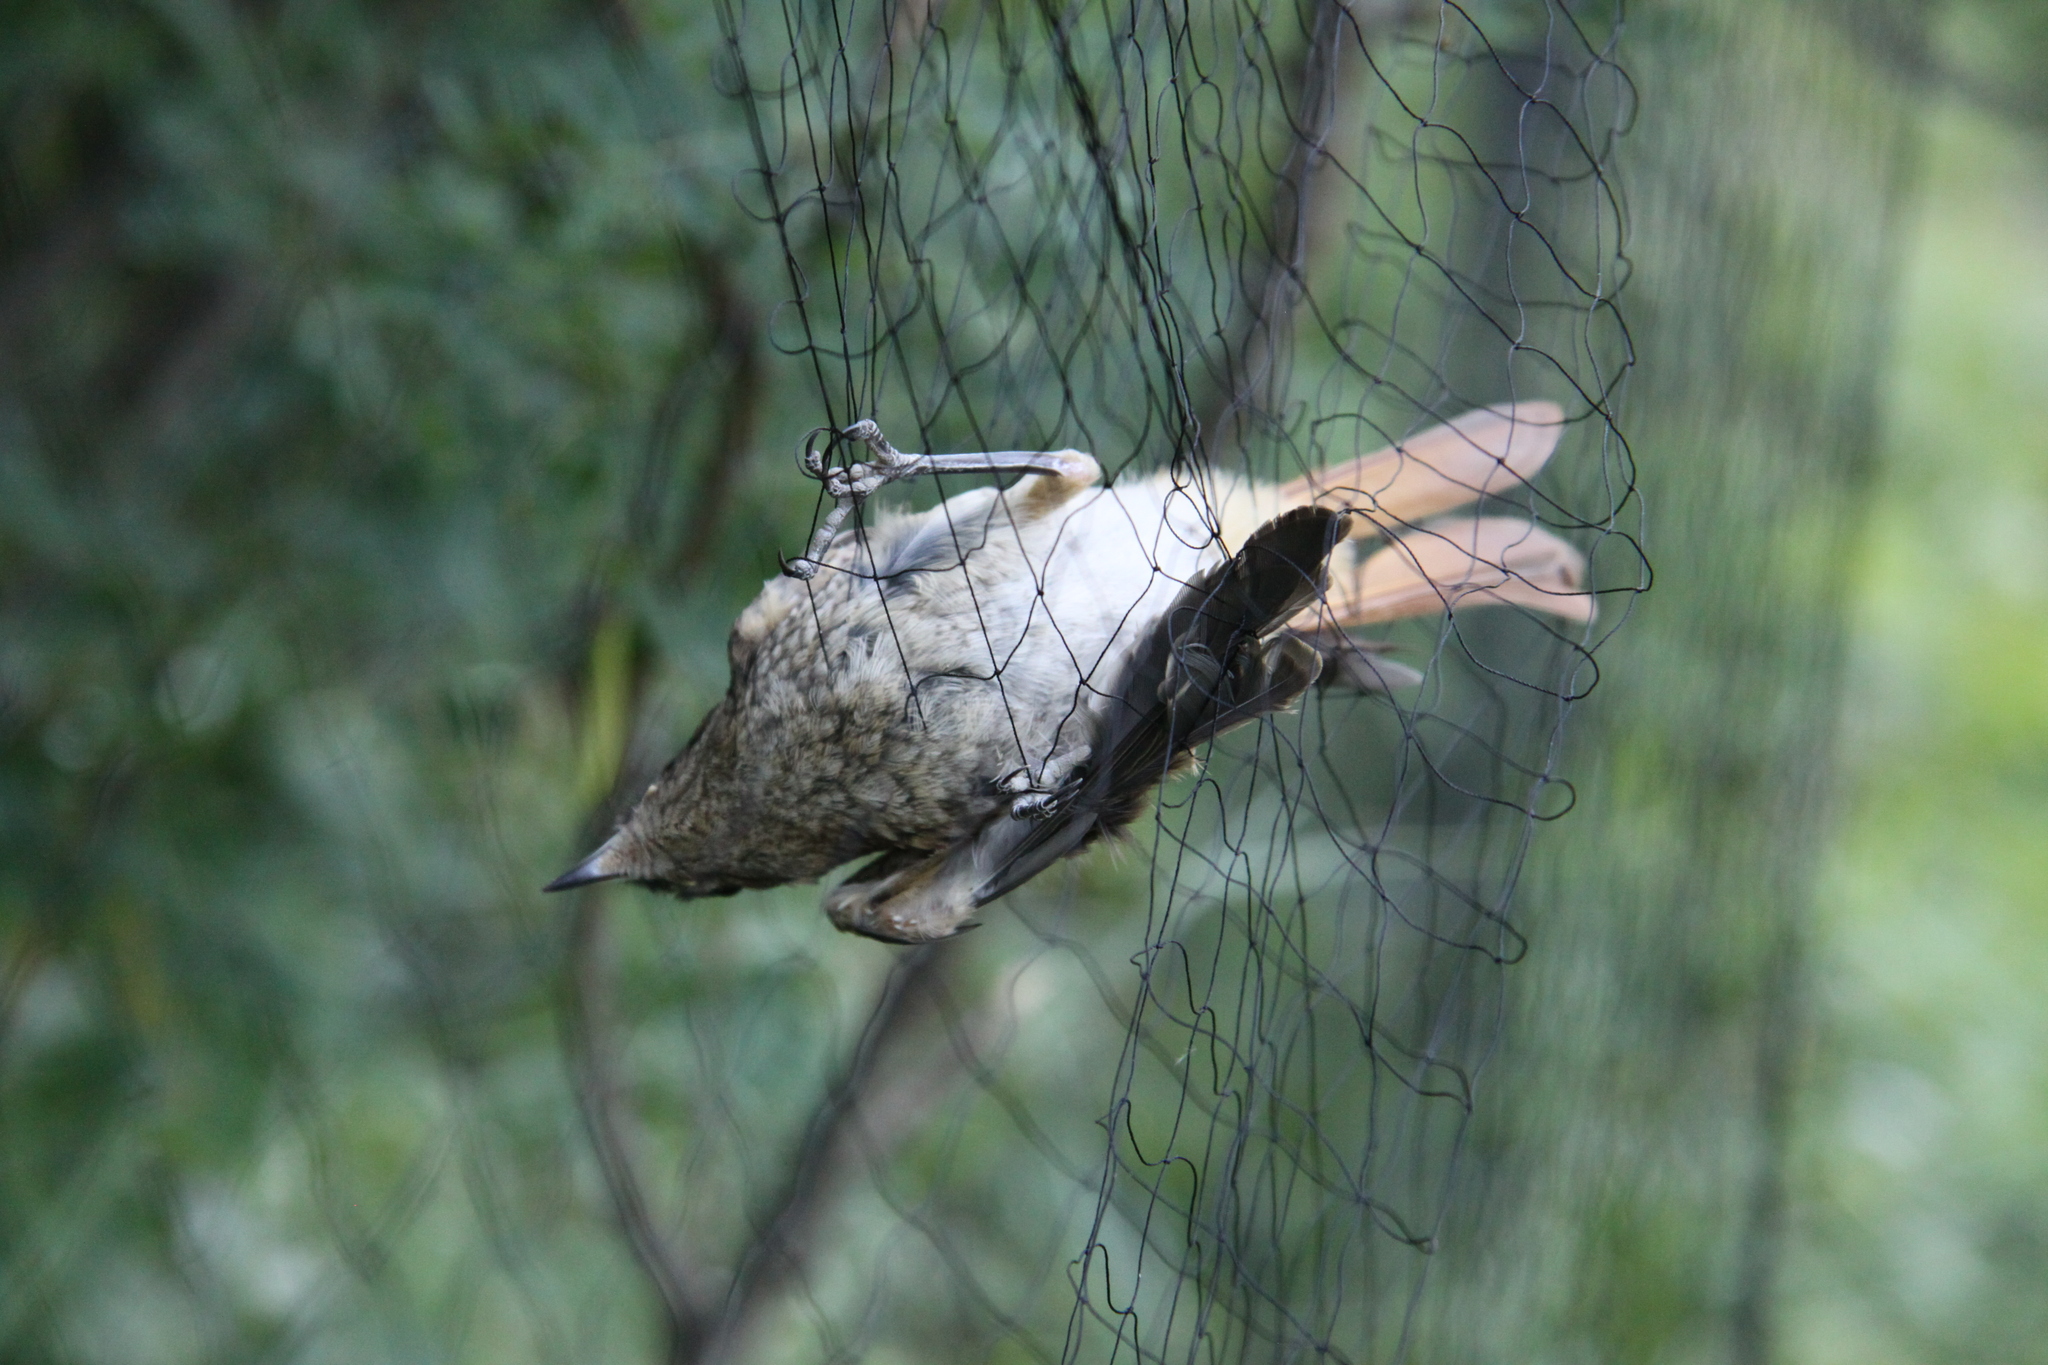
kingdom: Animalia
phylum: Chordata
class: Aves
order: Passeriformes
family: Muscicapidae
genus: Phoenicurus
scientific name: Phoenicurus phoenicurus
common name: Common redstart
